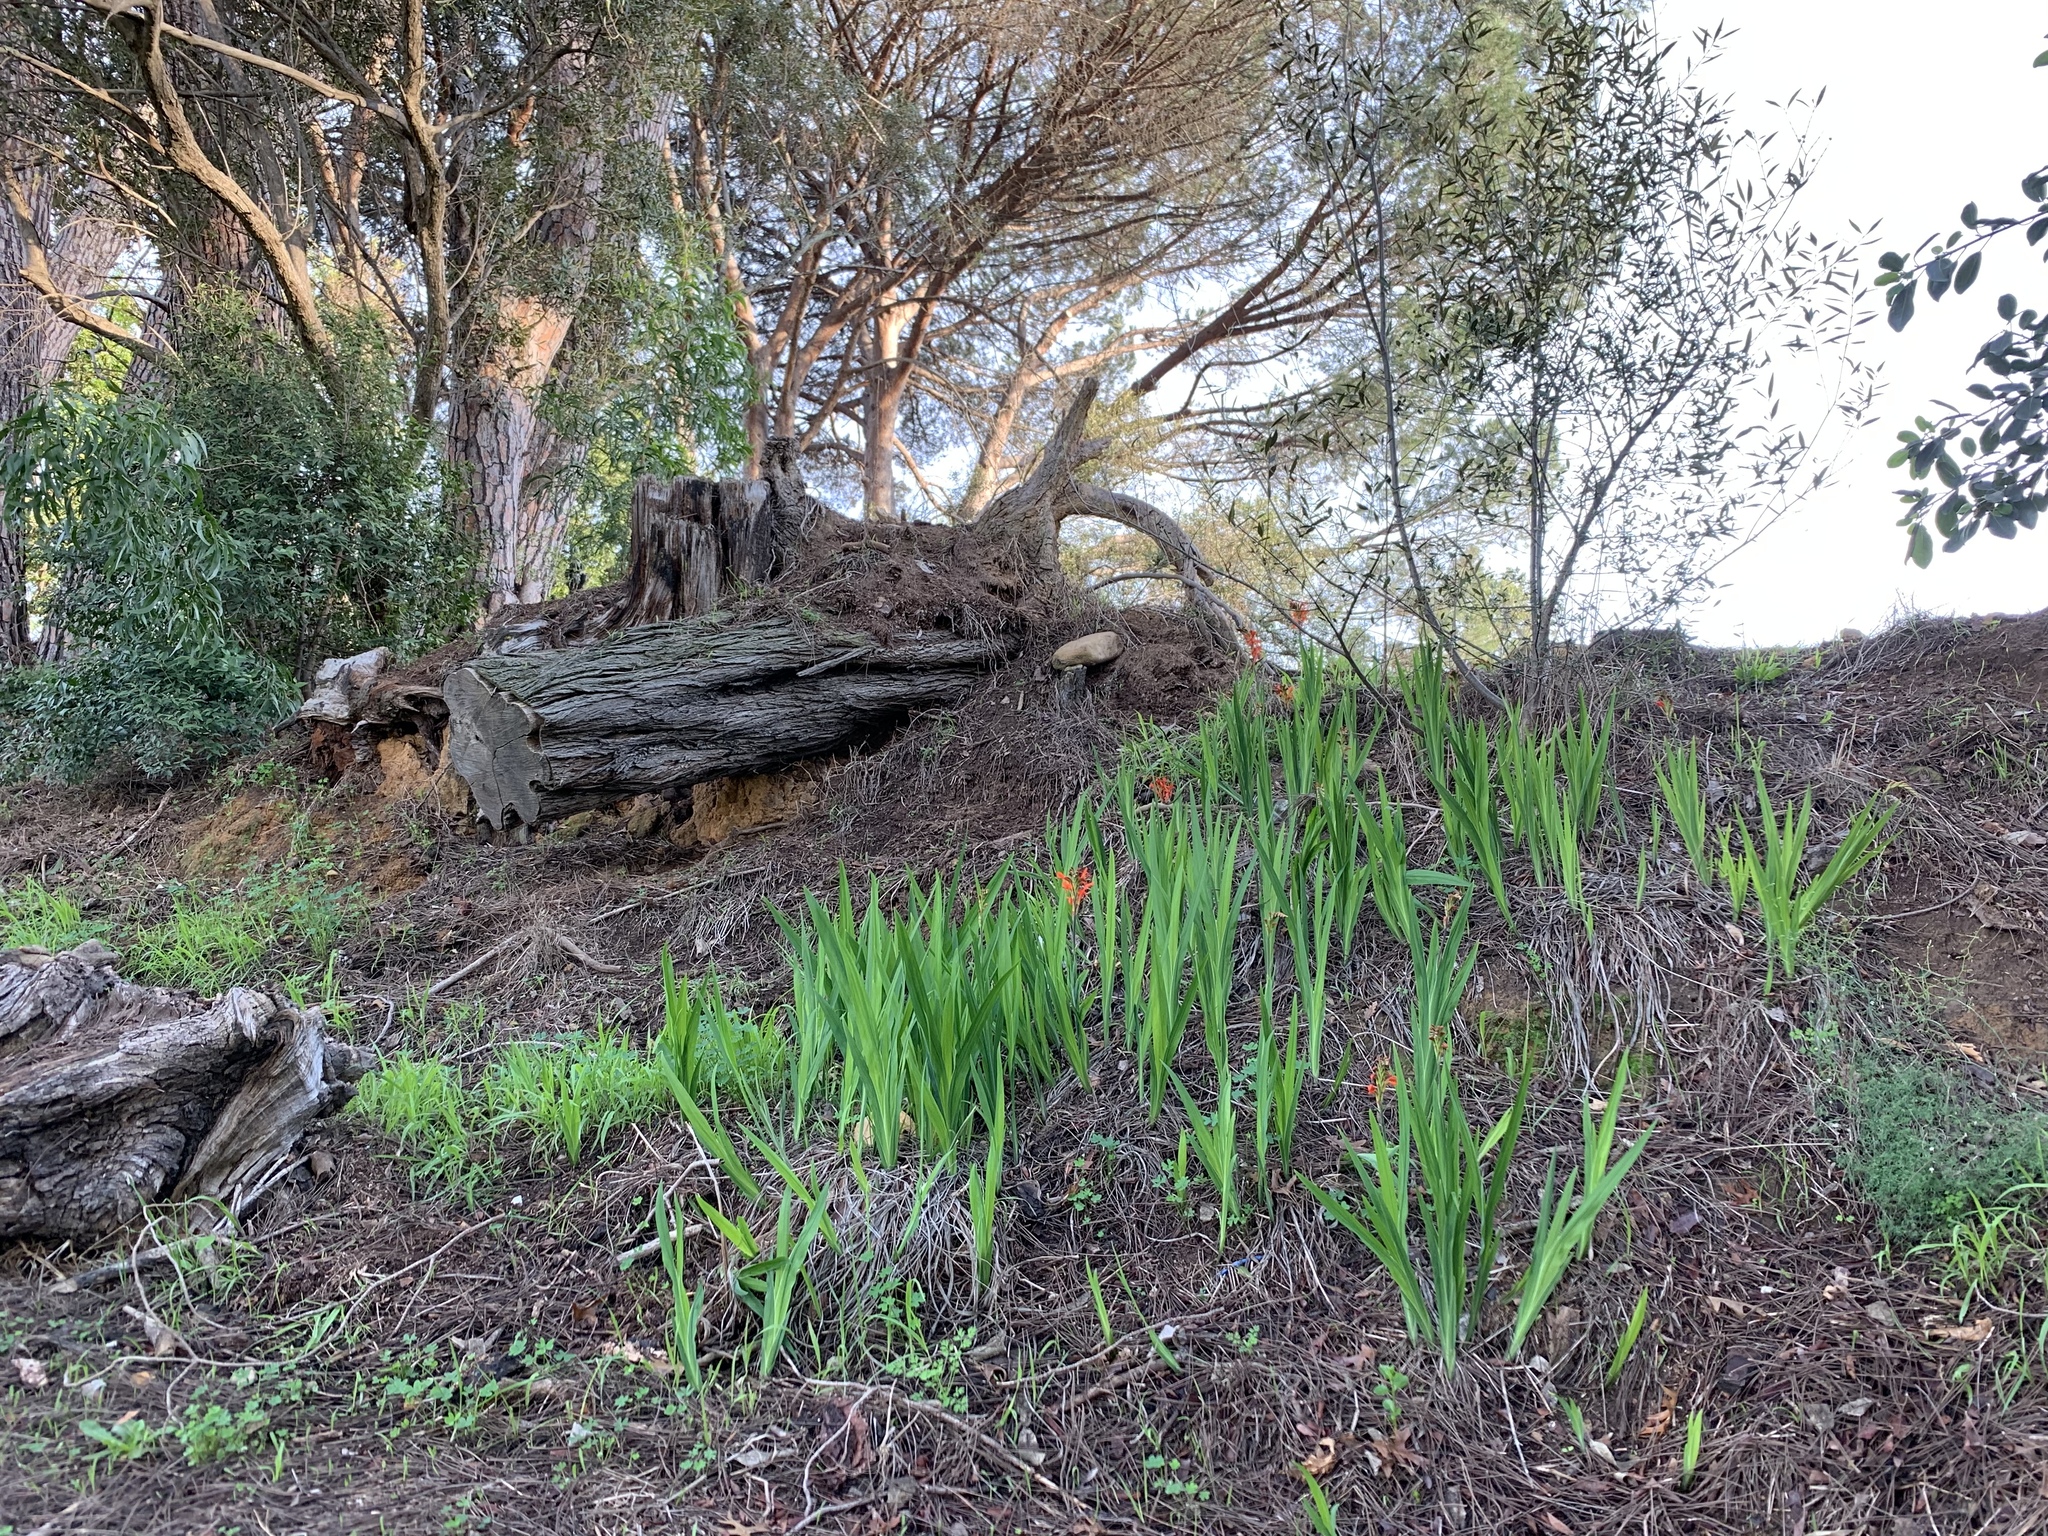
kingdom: Plantae
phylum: Tracheophyta
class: Liliopsida
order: Asparagales
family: Iridaceae
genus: Chasmanthe
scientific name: Chasmanthe aethiopica
